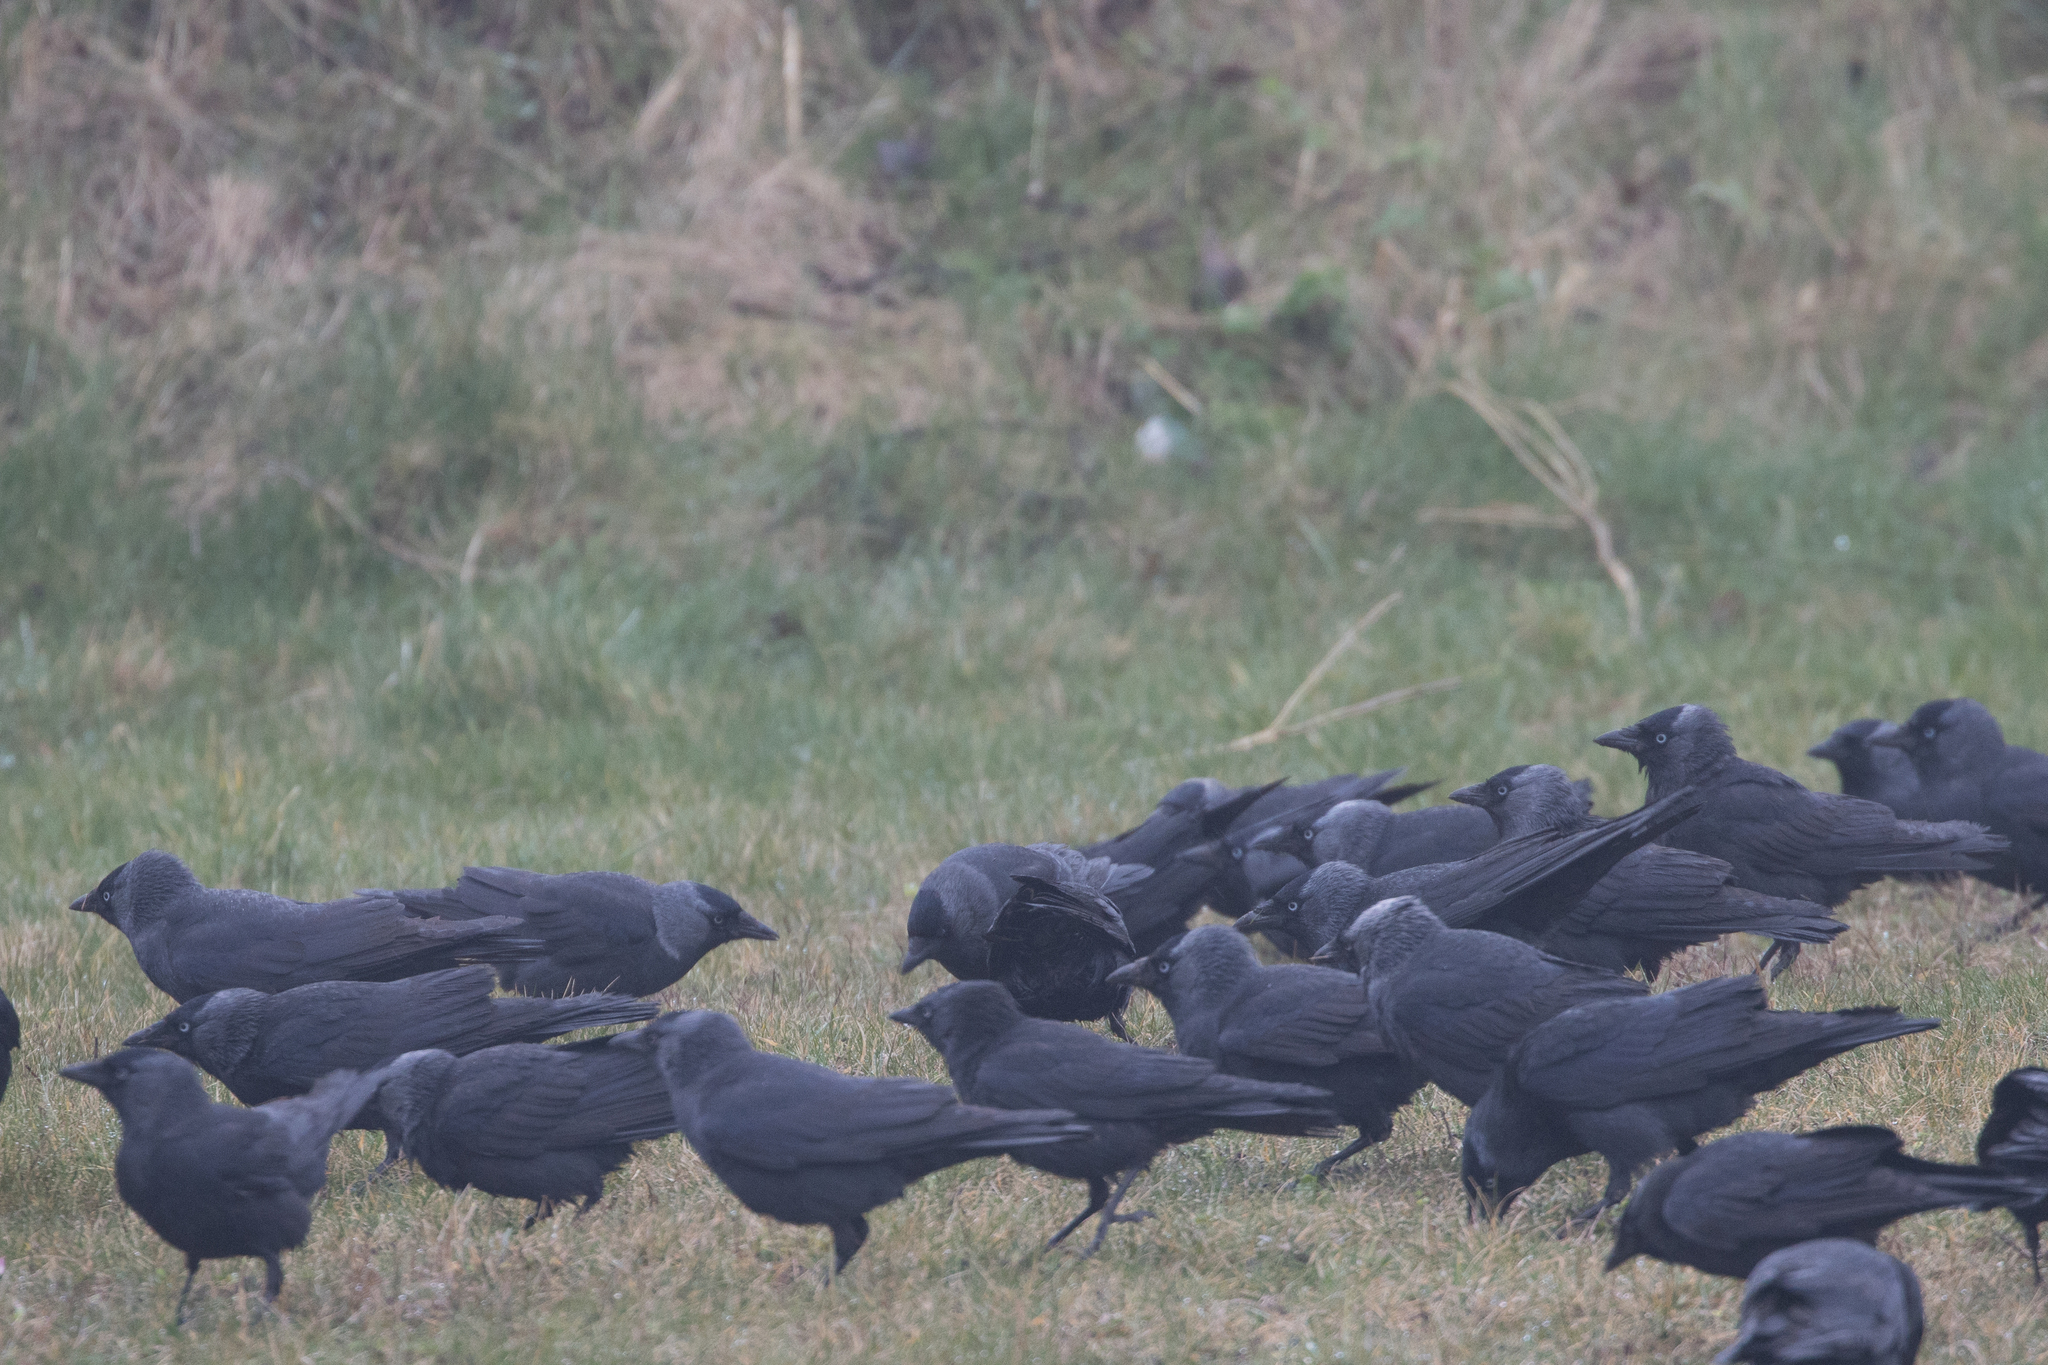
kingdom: Animalia
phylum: Chordata
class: Aves
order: Passeriformes
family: Corvidae
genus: Coloeus
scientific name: Coloeus monedula
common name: Western jackdaw
